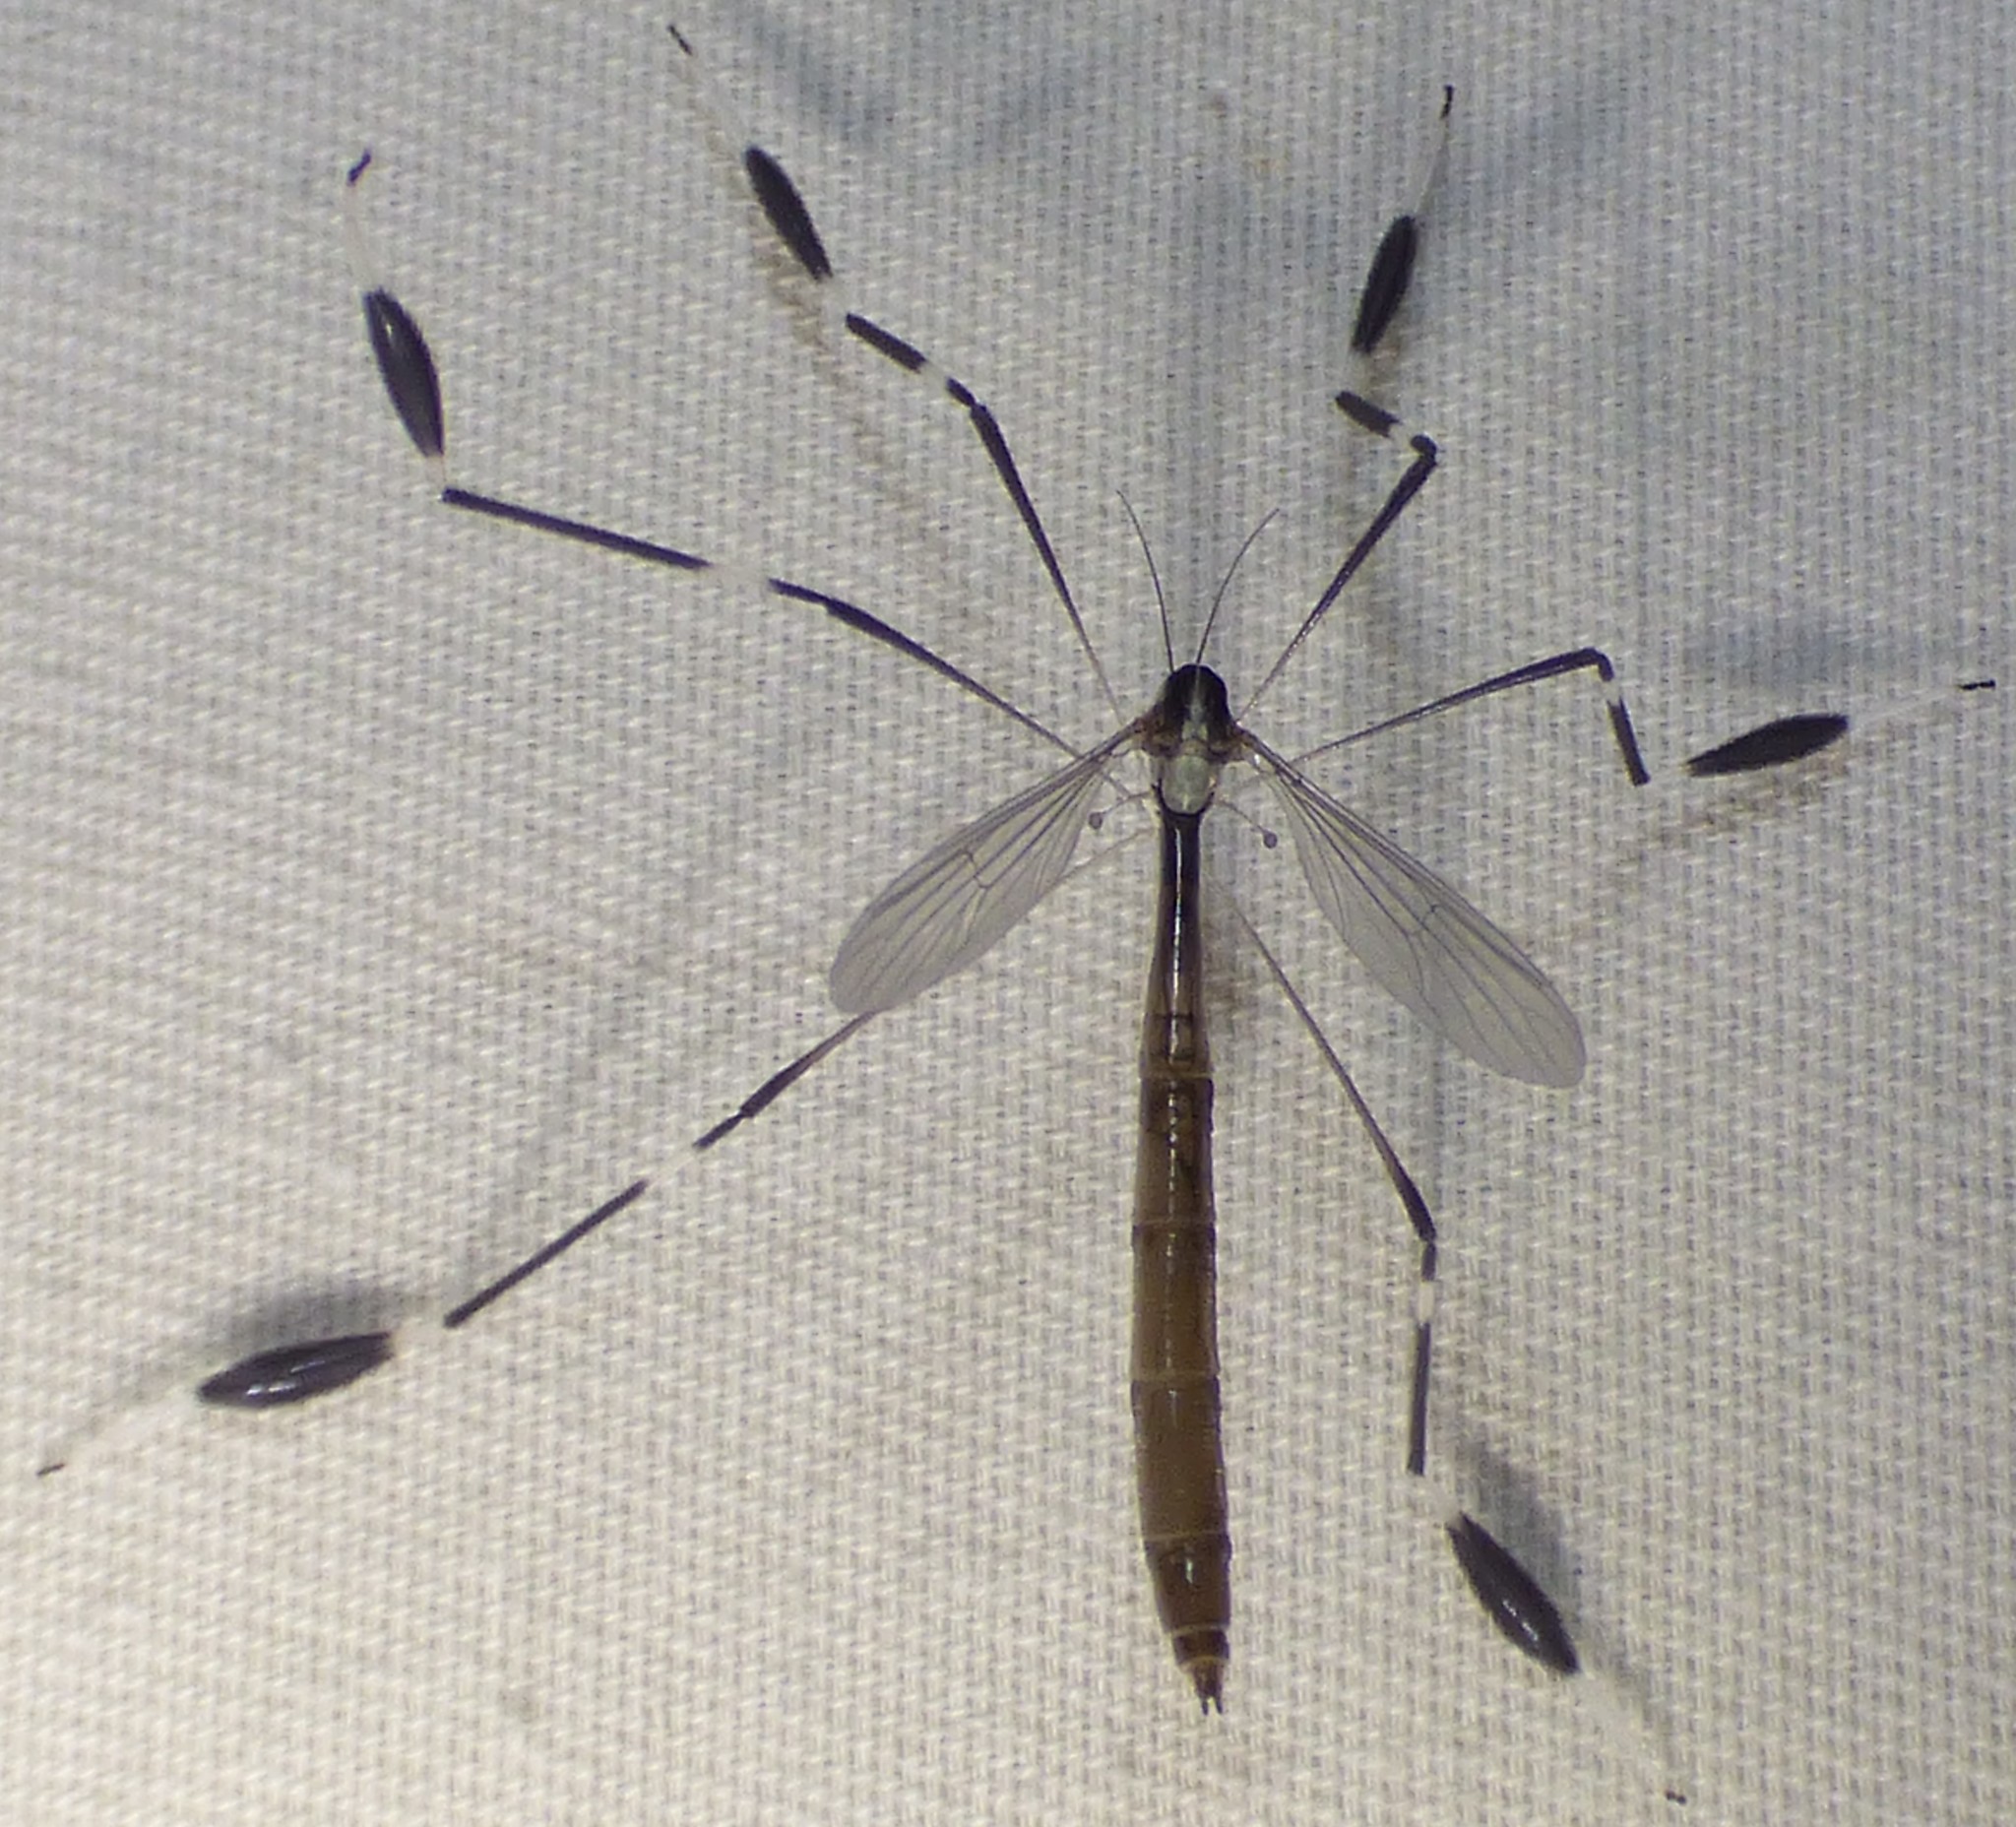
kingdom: Animalia
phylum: Arthropoda
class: Insecta
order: Diptera
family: Ptychopteridae
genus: Bittacomorpha
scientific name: Bittacomorpha clavipes
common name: Eastern phantom crane fly
